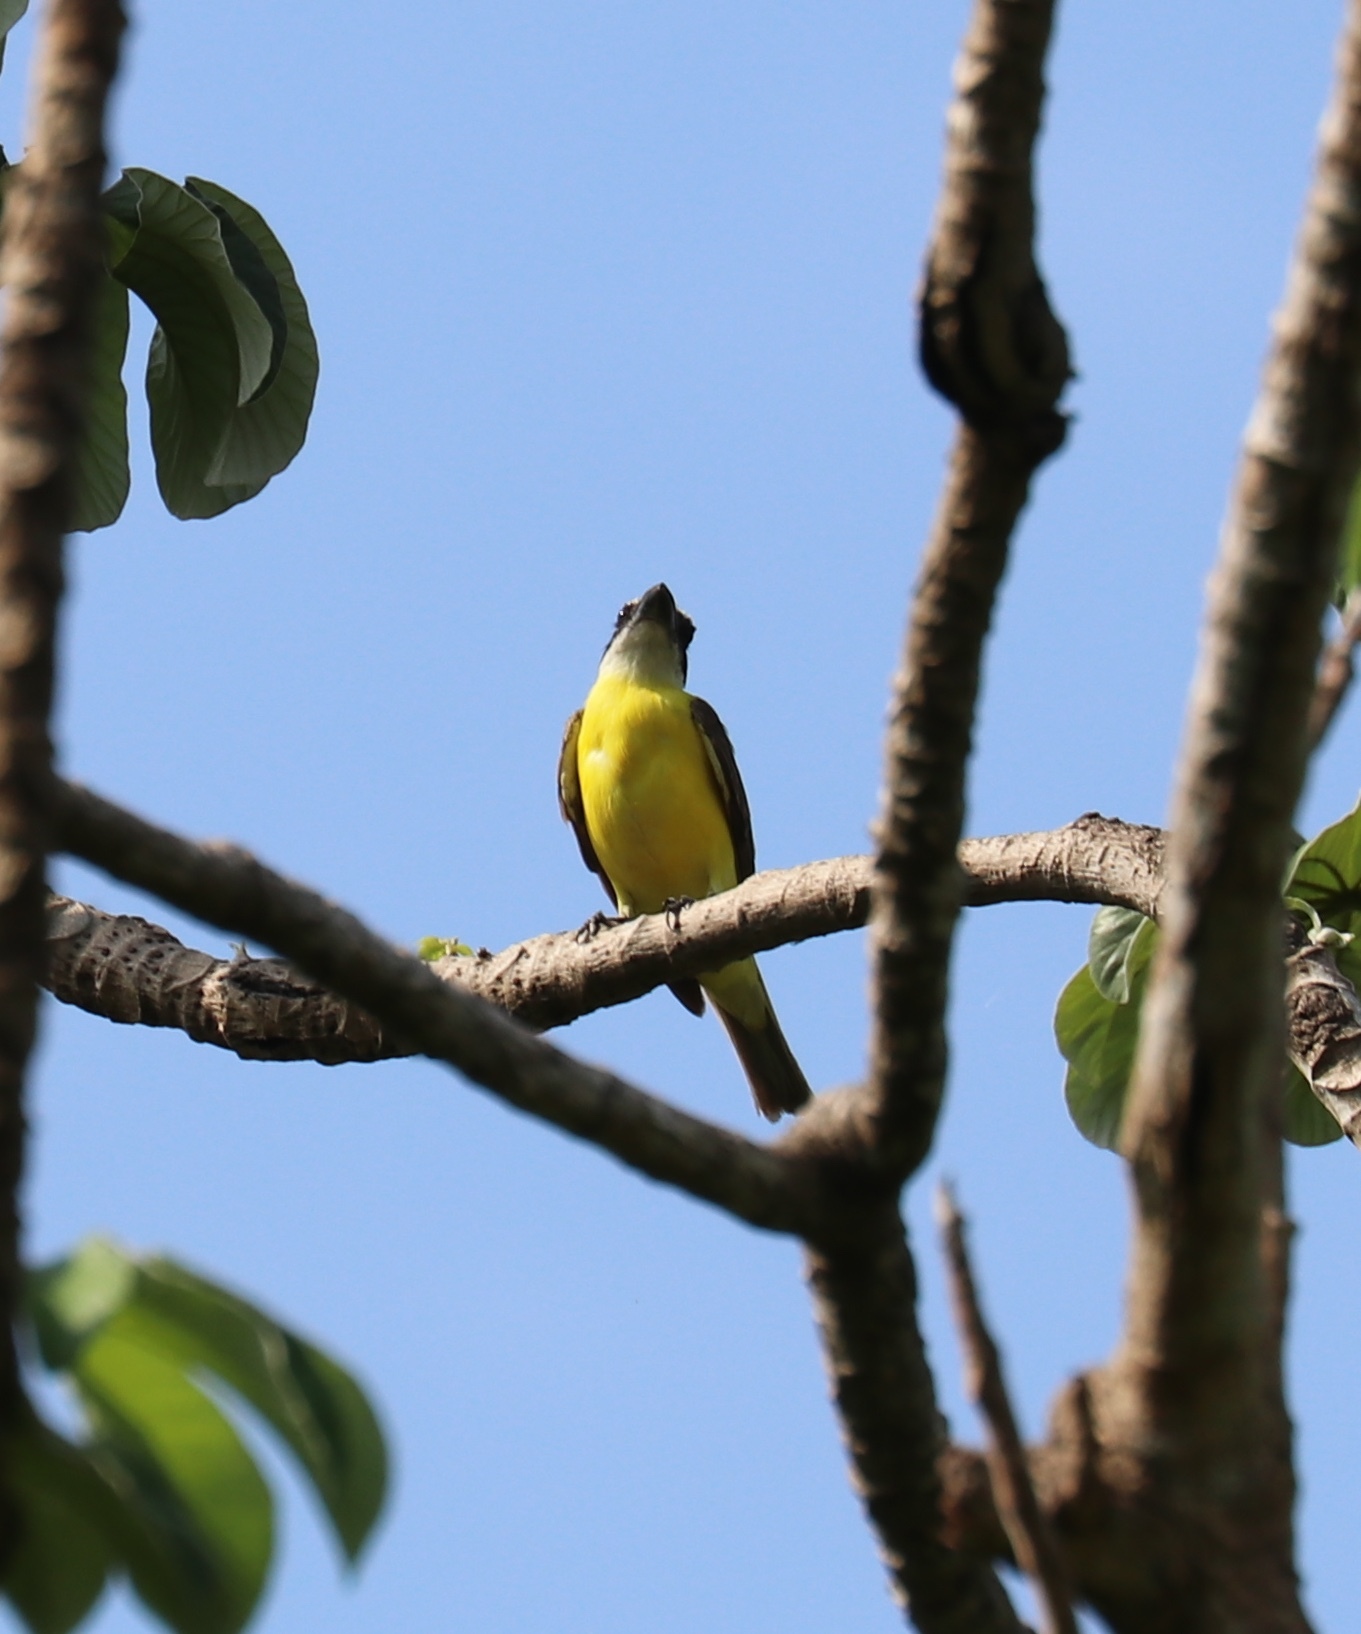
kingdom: Animalia
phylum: Chordata
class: Aves
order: Passeriformes
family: Tyrannidae
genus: Megarynchus
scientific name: Megarynchus pitangua
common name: Boat-billed flycatcher
